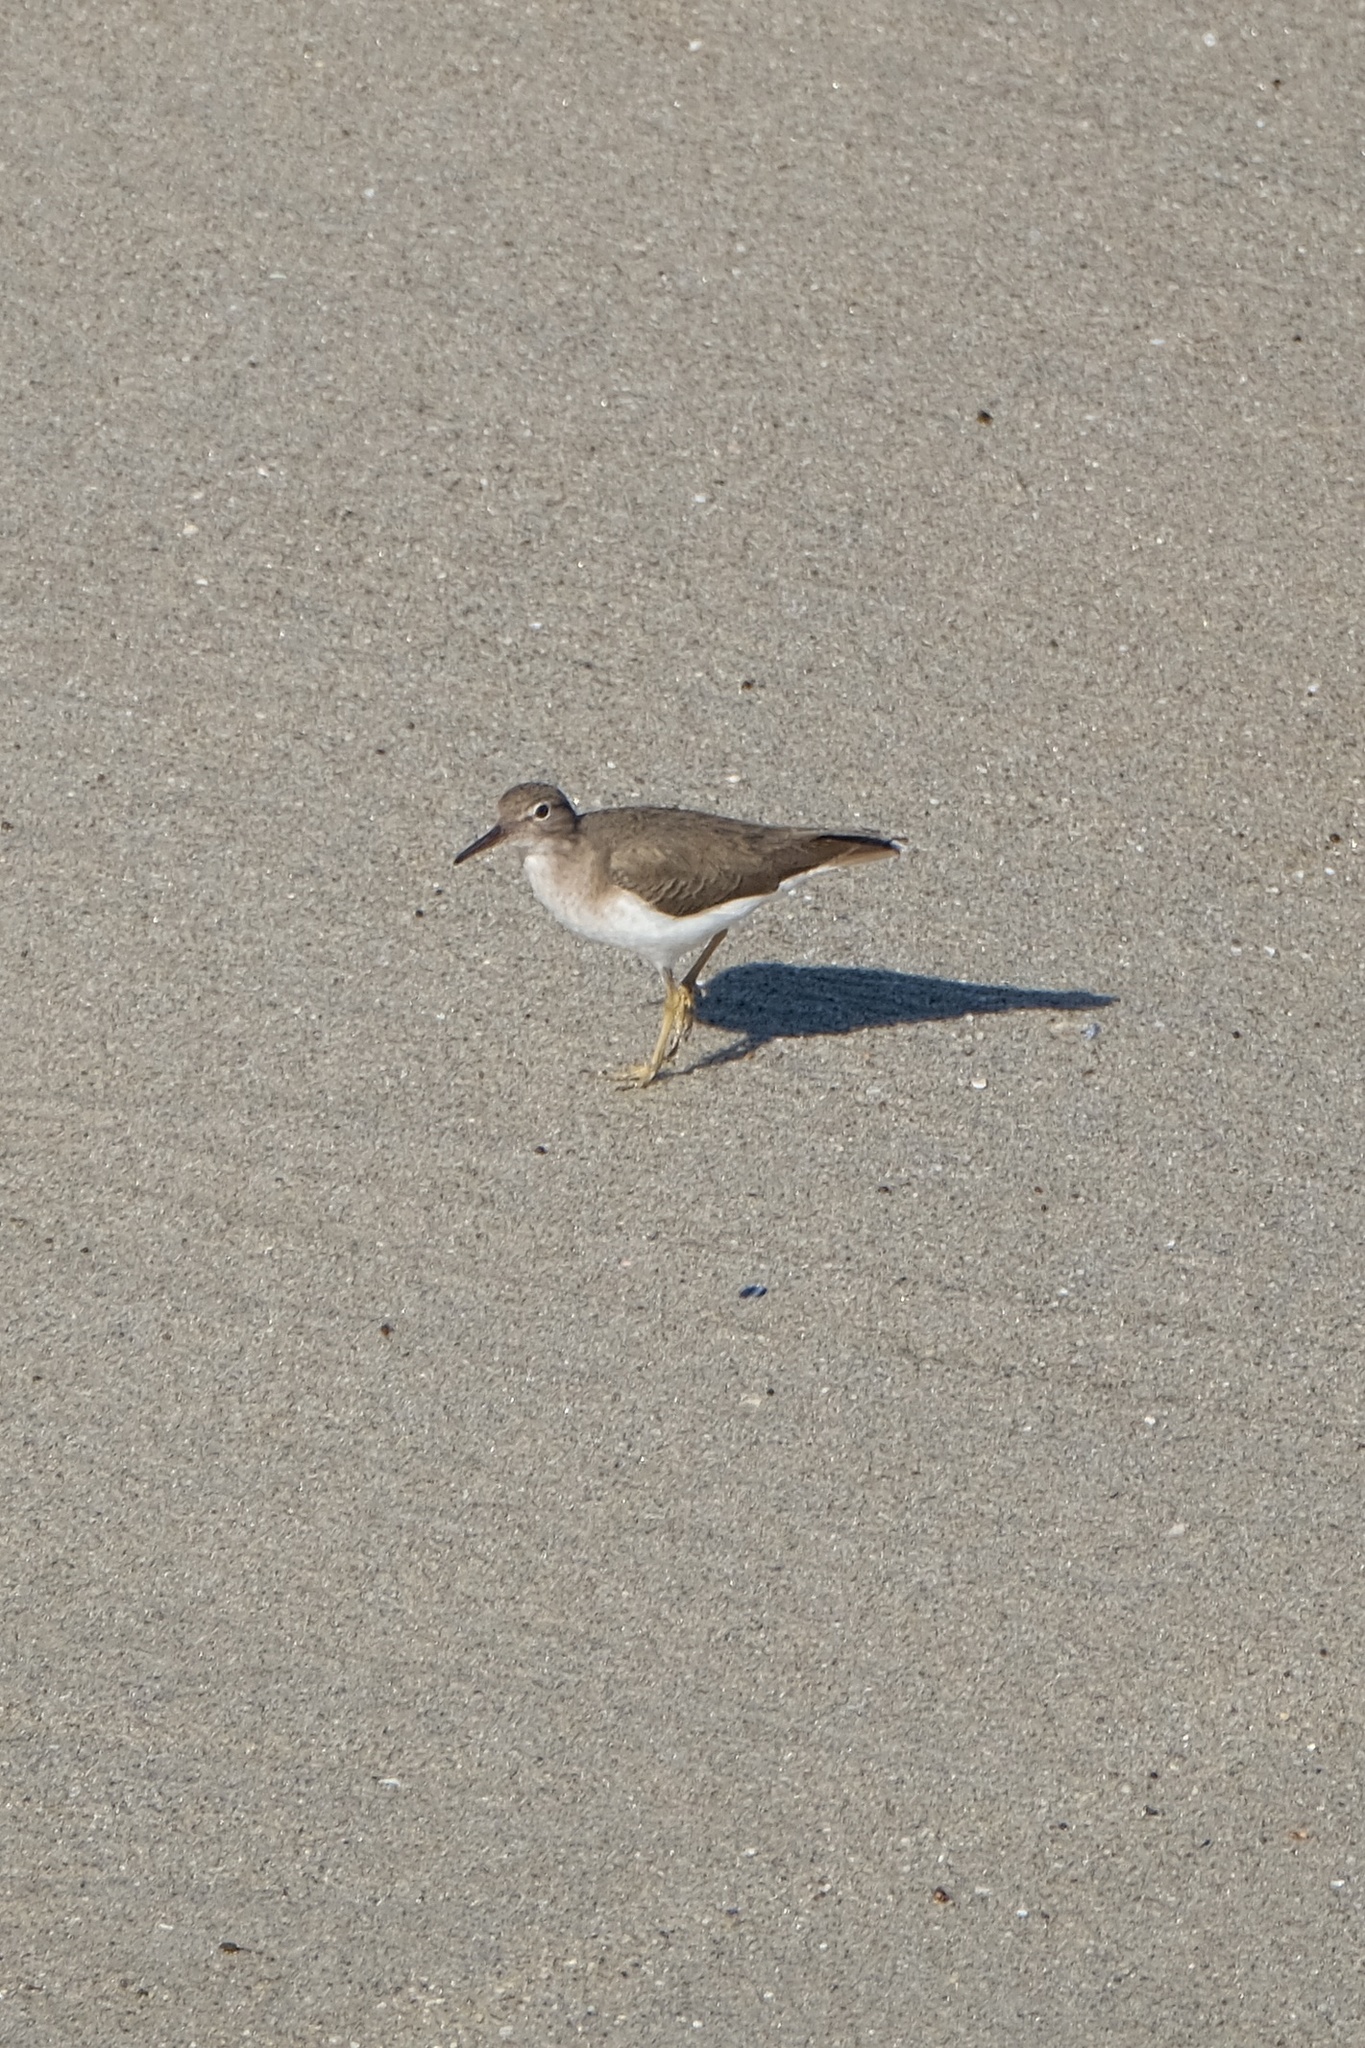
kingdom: Animalia
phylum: Chordata
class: Aves
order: Charadriiformes
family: Scolopacidae
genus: Actitis
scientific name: Actitis macularius
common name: Spotted sandpiper
